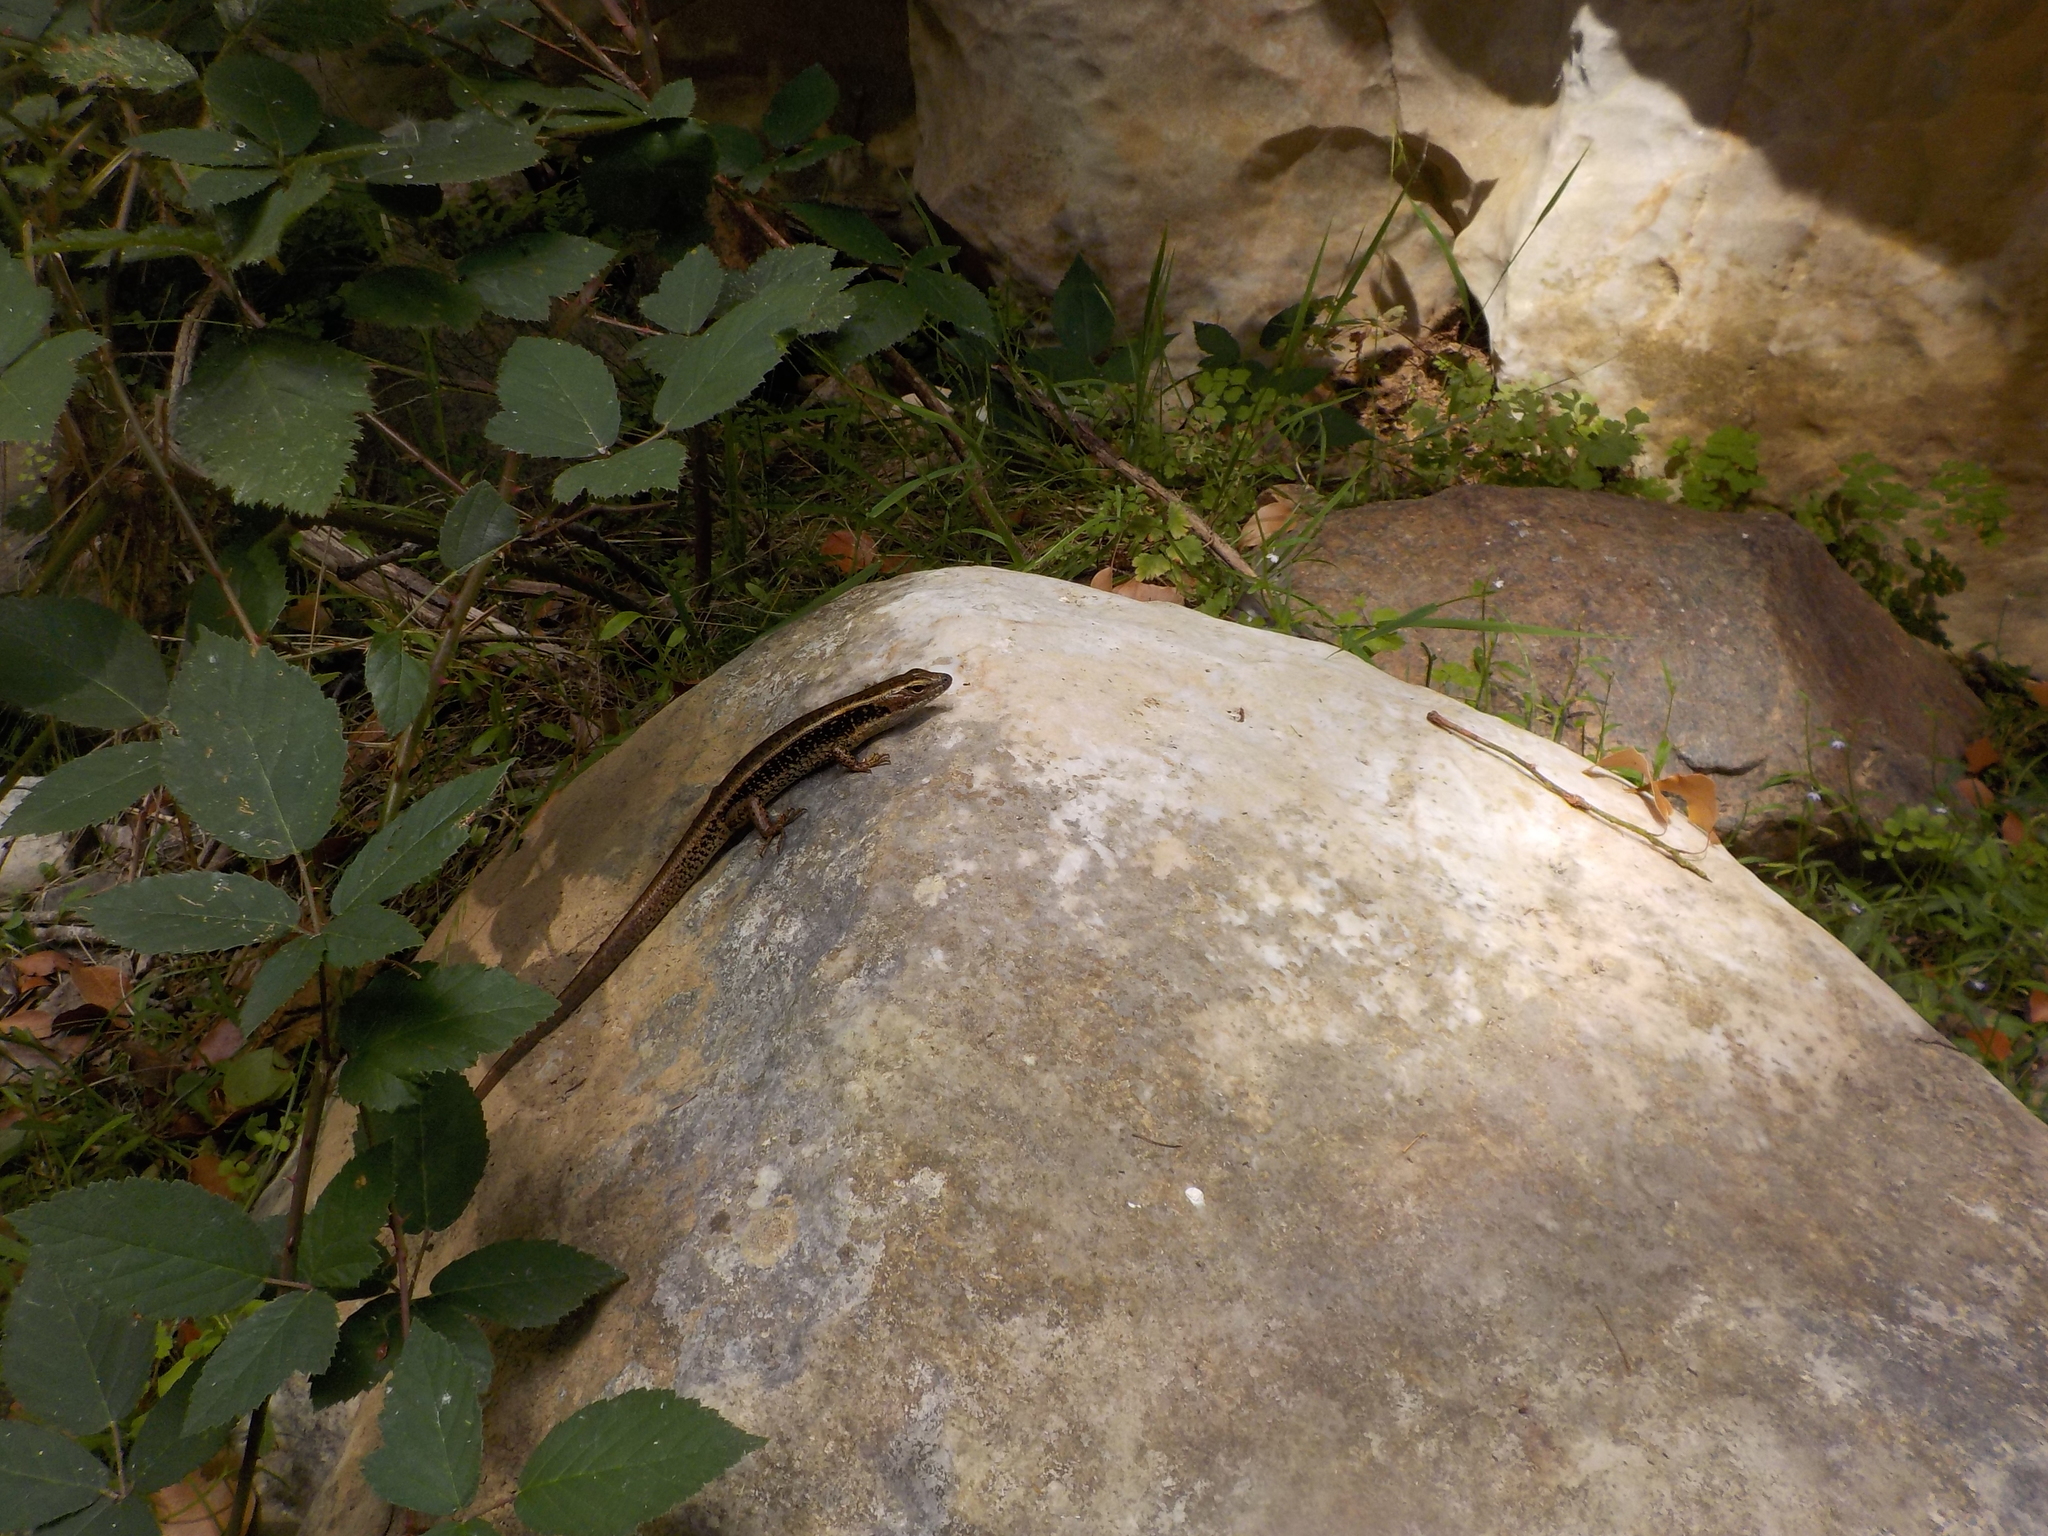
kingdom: Animalia
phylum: Chordata
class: Squamata
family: Scincidae
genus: Eulamprus
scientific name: Eulamprus quoyii
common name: Eastern water skink
